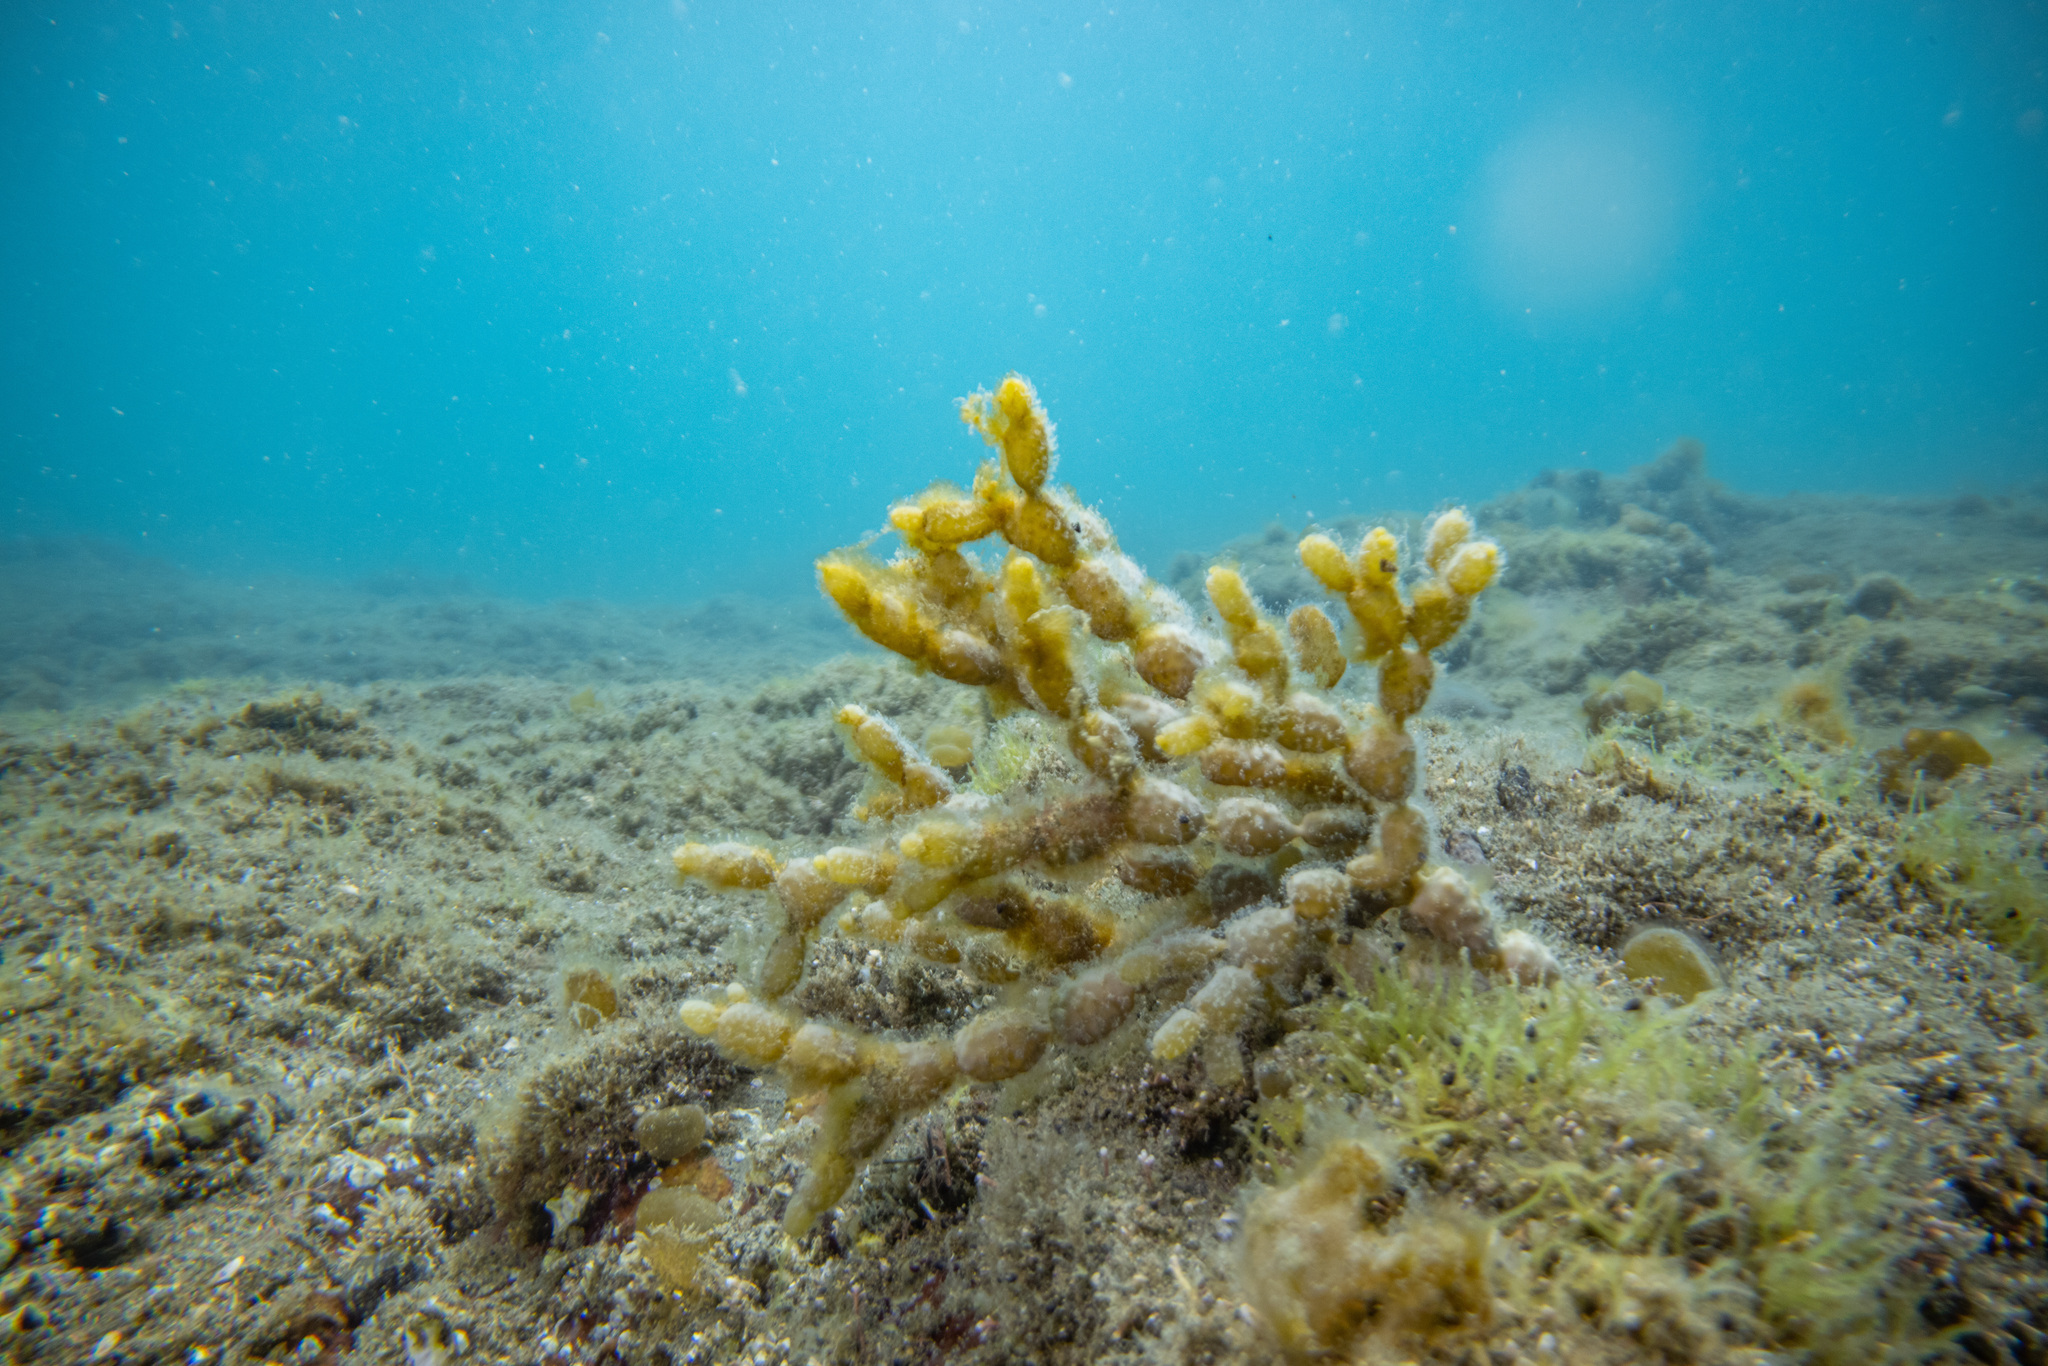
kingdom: Chromista
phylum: Ochrophyta
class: Phaeophyceae
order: Fucales
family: Hormosiraceae
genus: Hormosira
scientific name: Hormosira banksii
